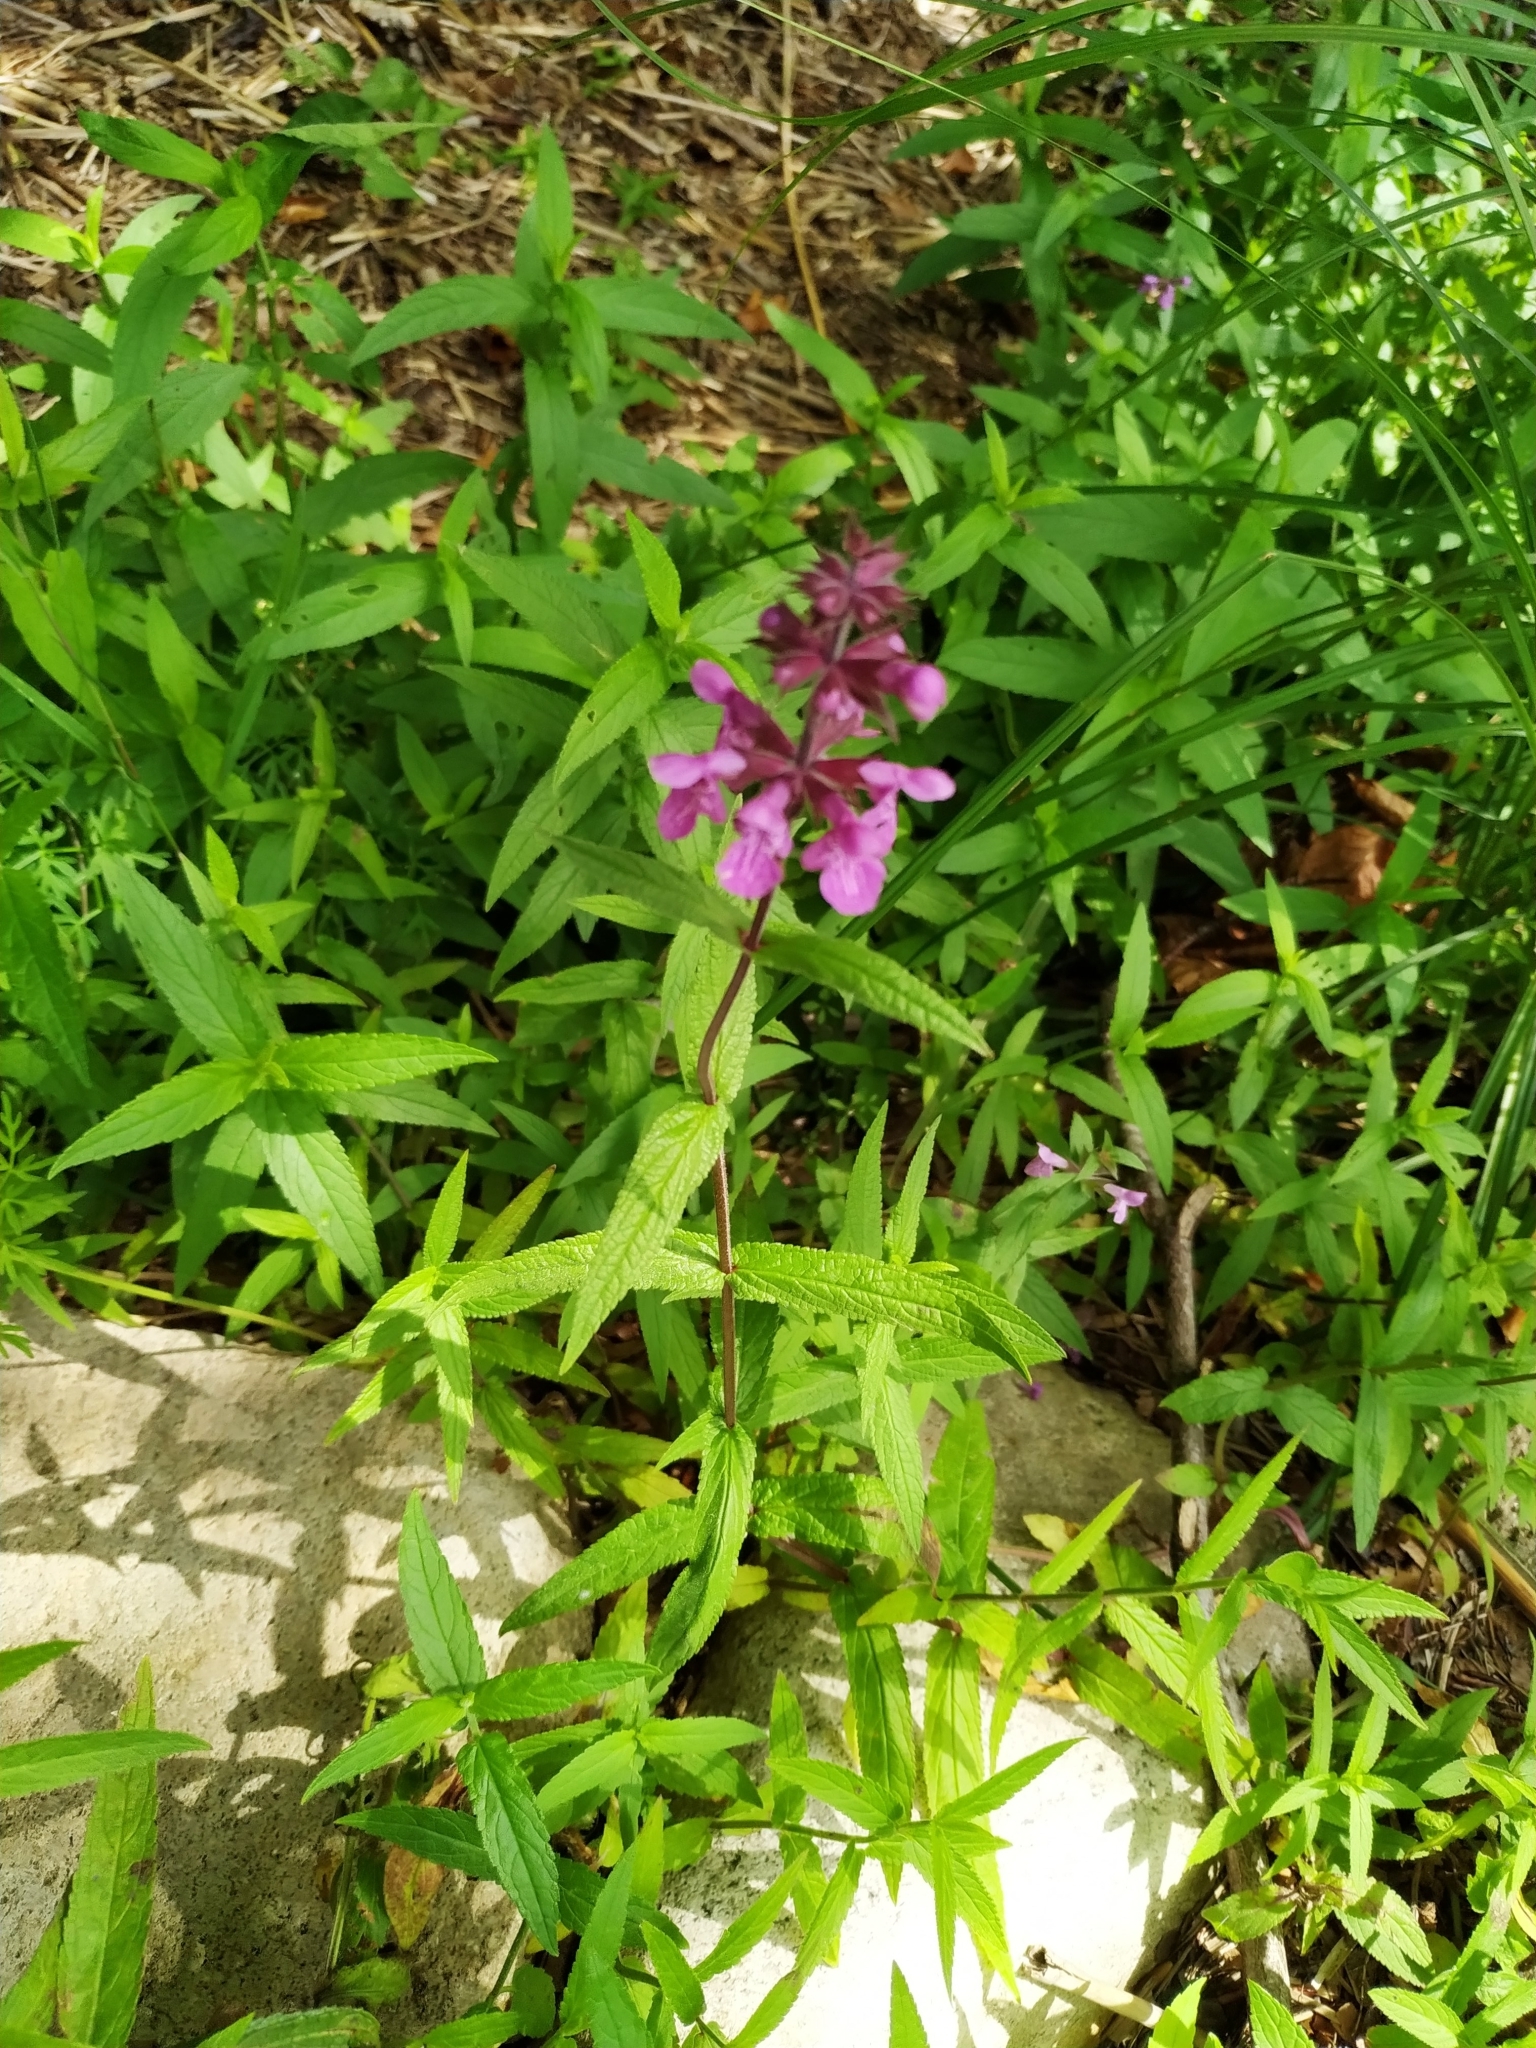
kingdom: Plantae
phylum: Tracheophyta
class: Magnoliopsida
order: Lamiales
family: Lamiaceae
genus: Stachys
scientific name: Stachys palustris
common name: Marsh woundwort
